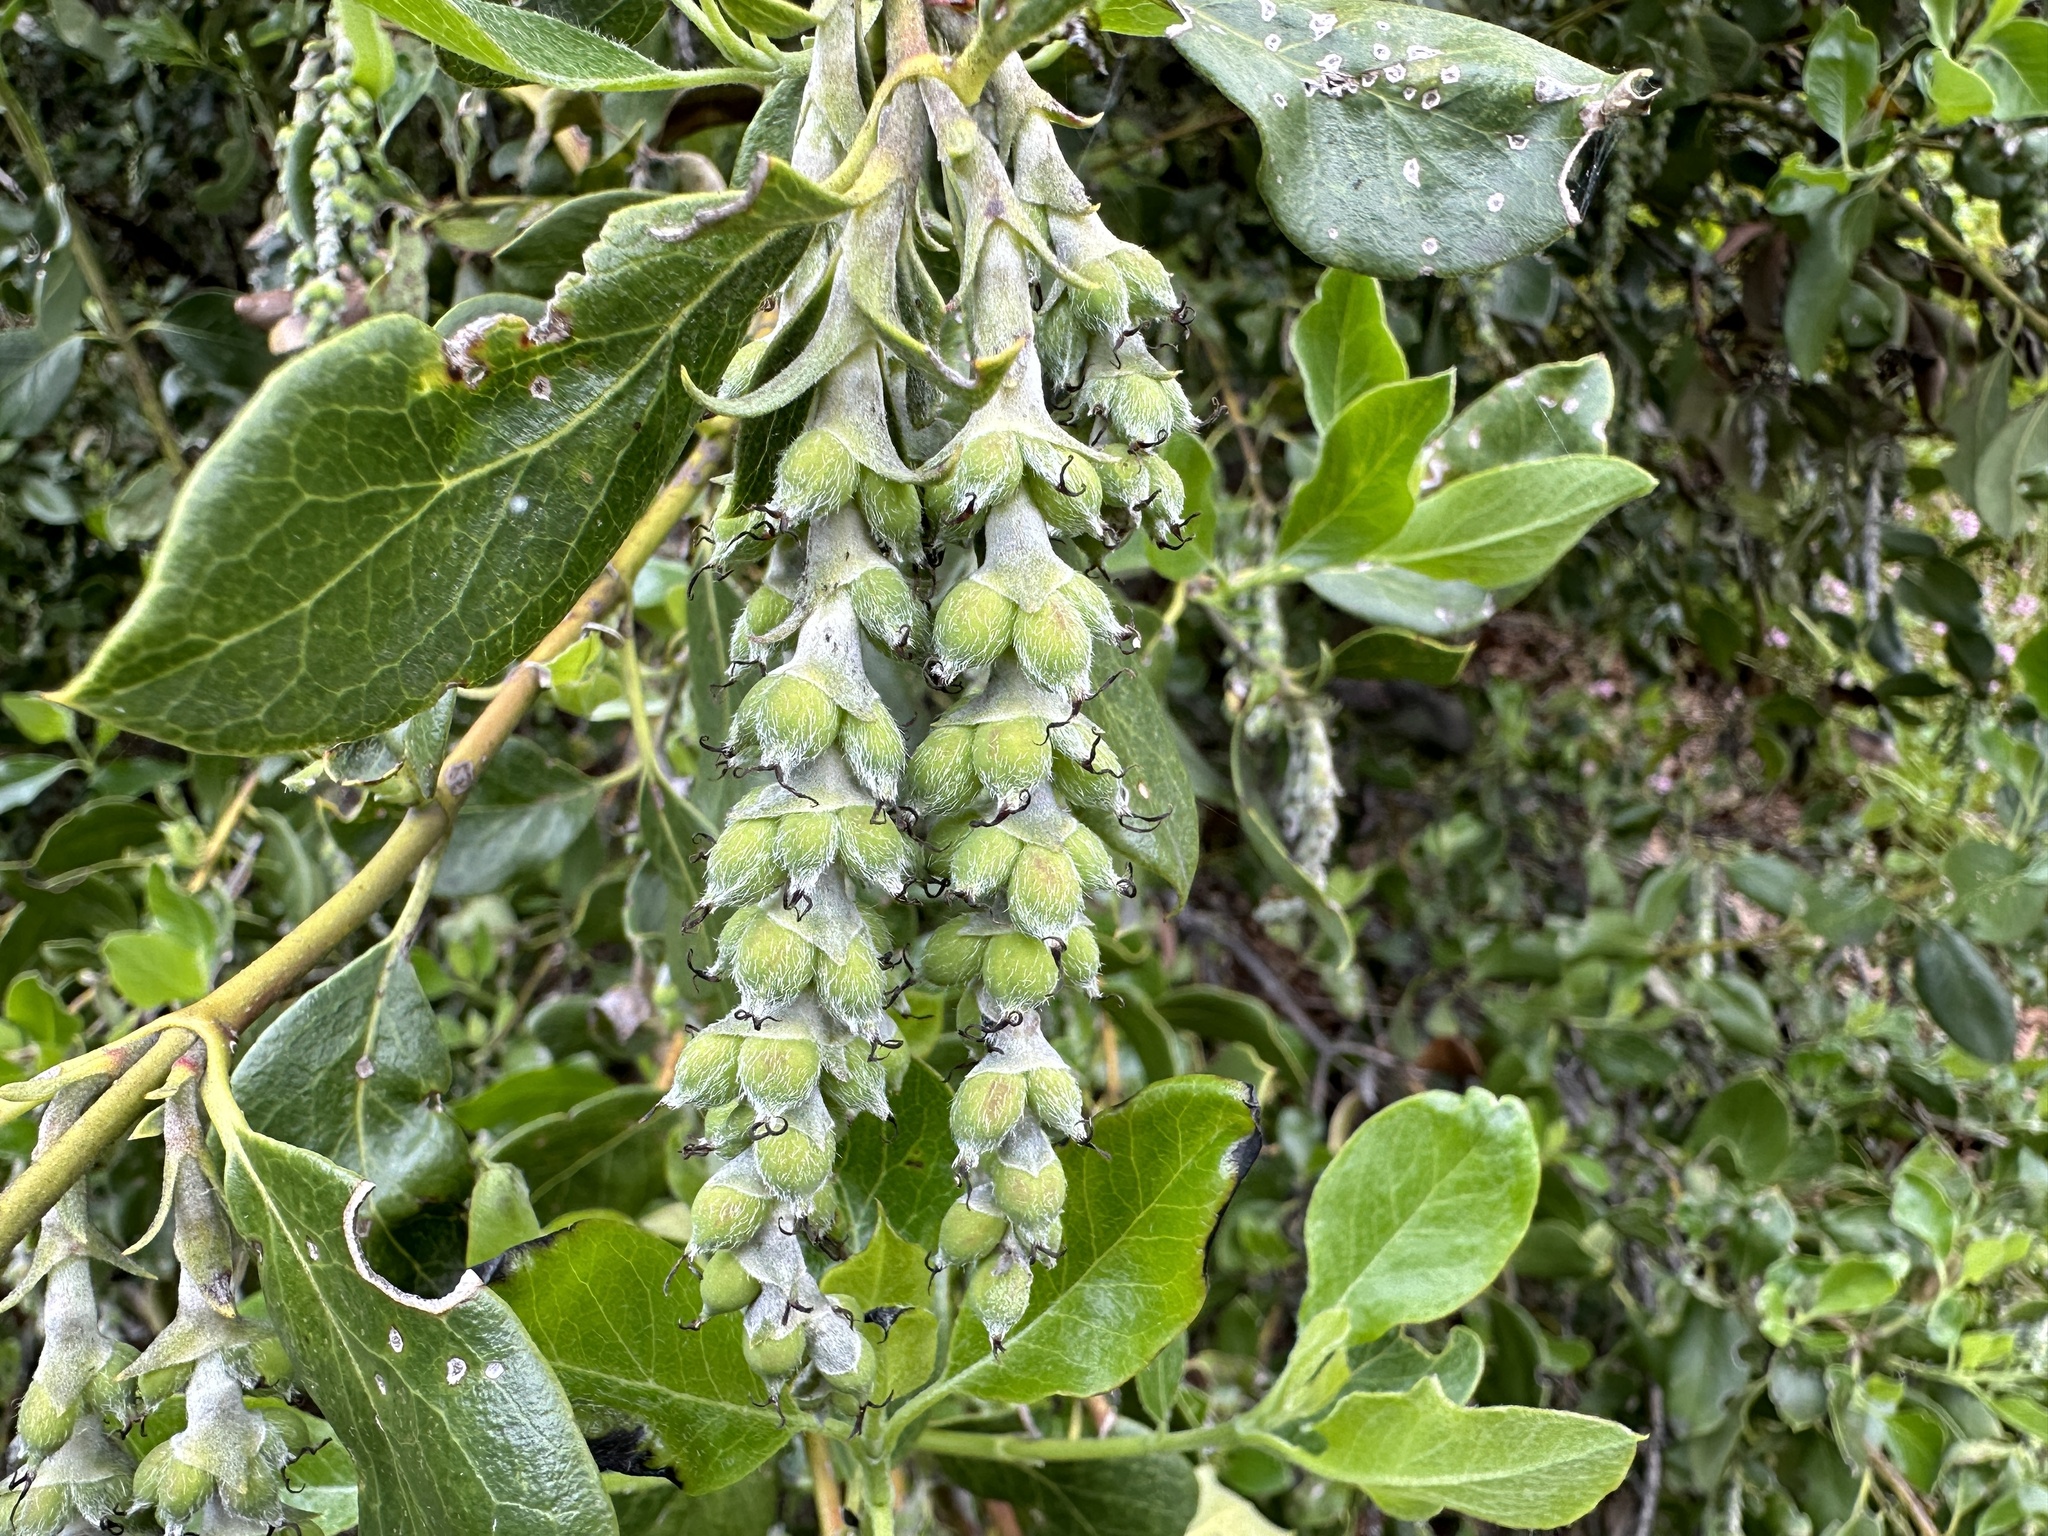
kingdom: Plantae
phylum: Tracheophyta
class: Magnoliopsida
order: Garryales
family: Garryaceae
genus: Garrya
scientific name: Garrya fremontii
